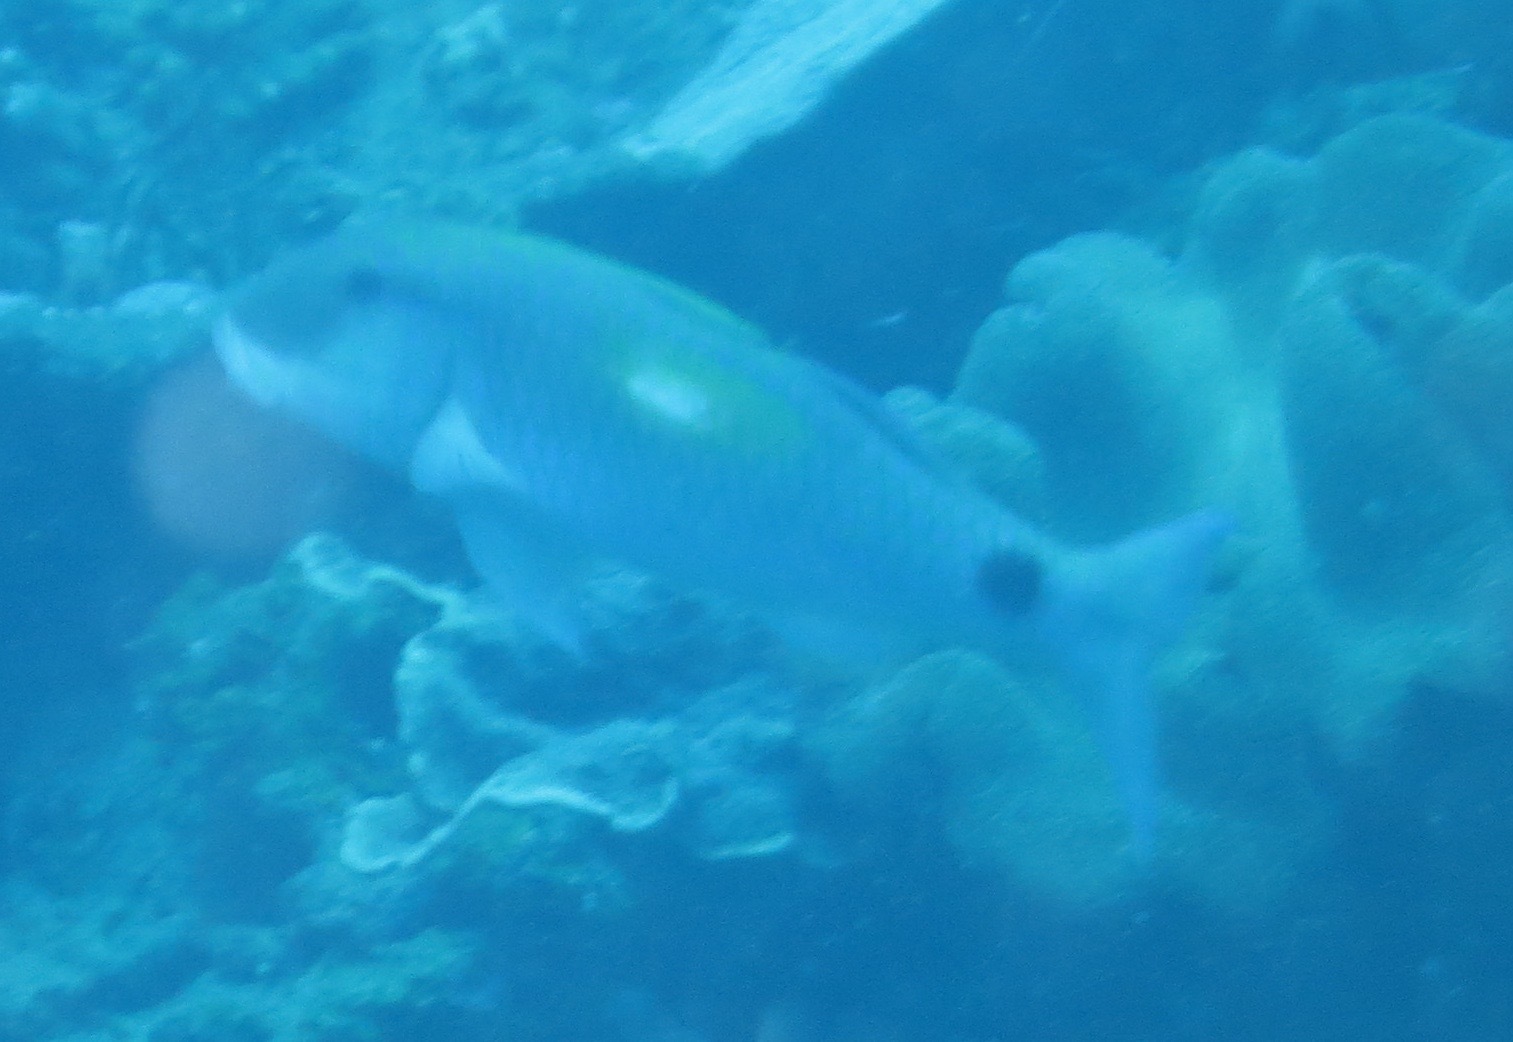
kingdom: Animalia
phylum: Chordata
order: Perciformes
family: Mullidae
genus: Parupeneus
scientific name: Parupeneus indicus
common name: Indian goatfish
